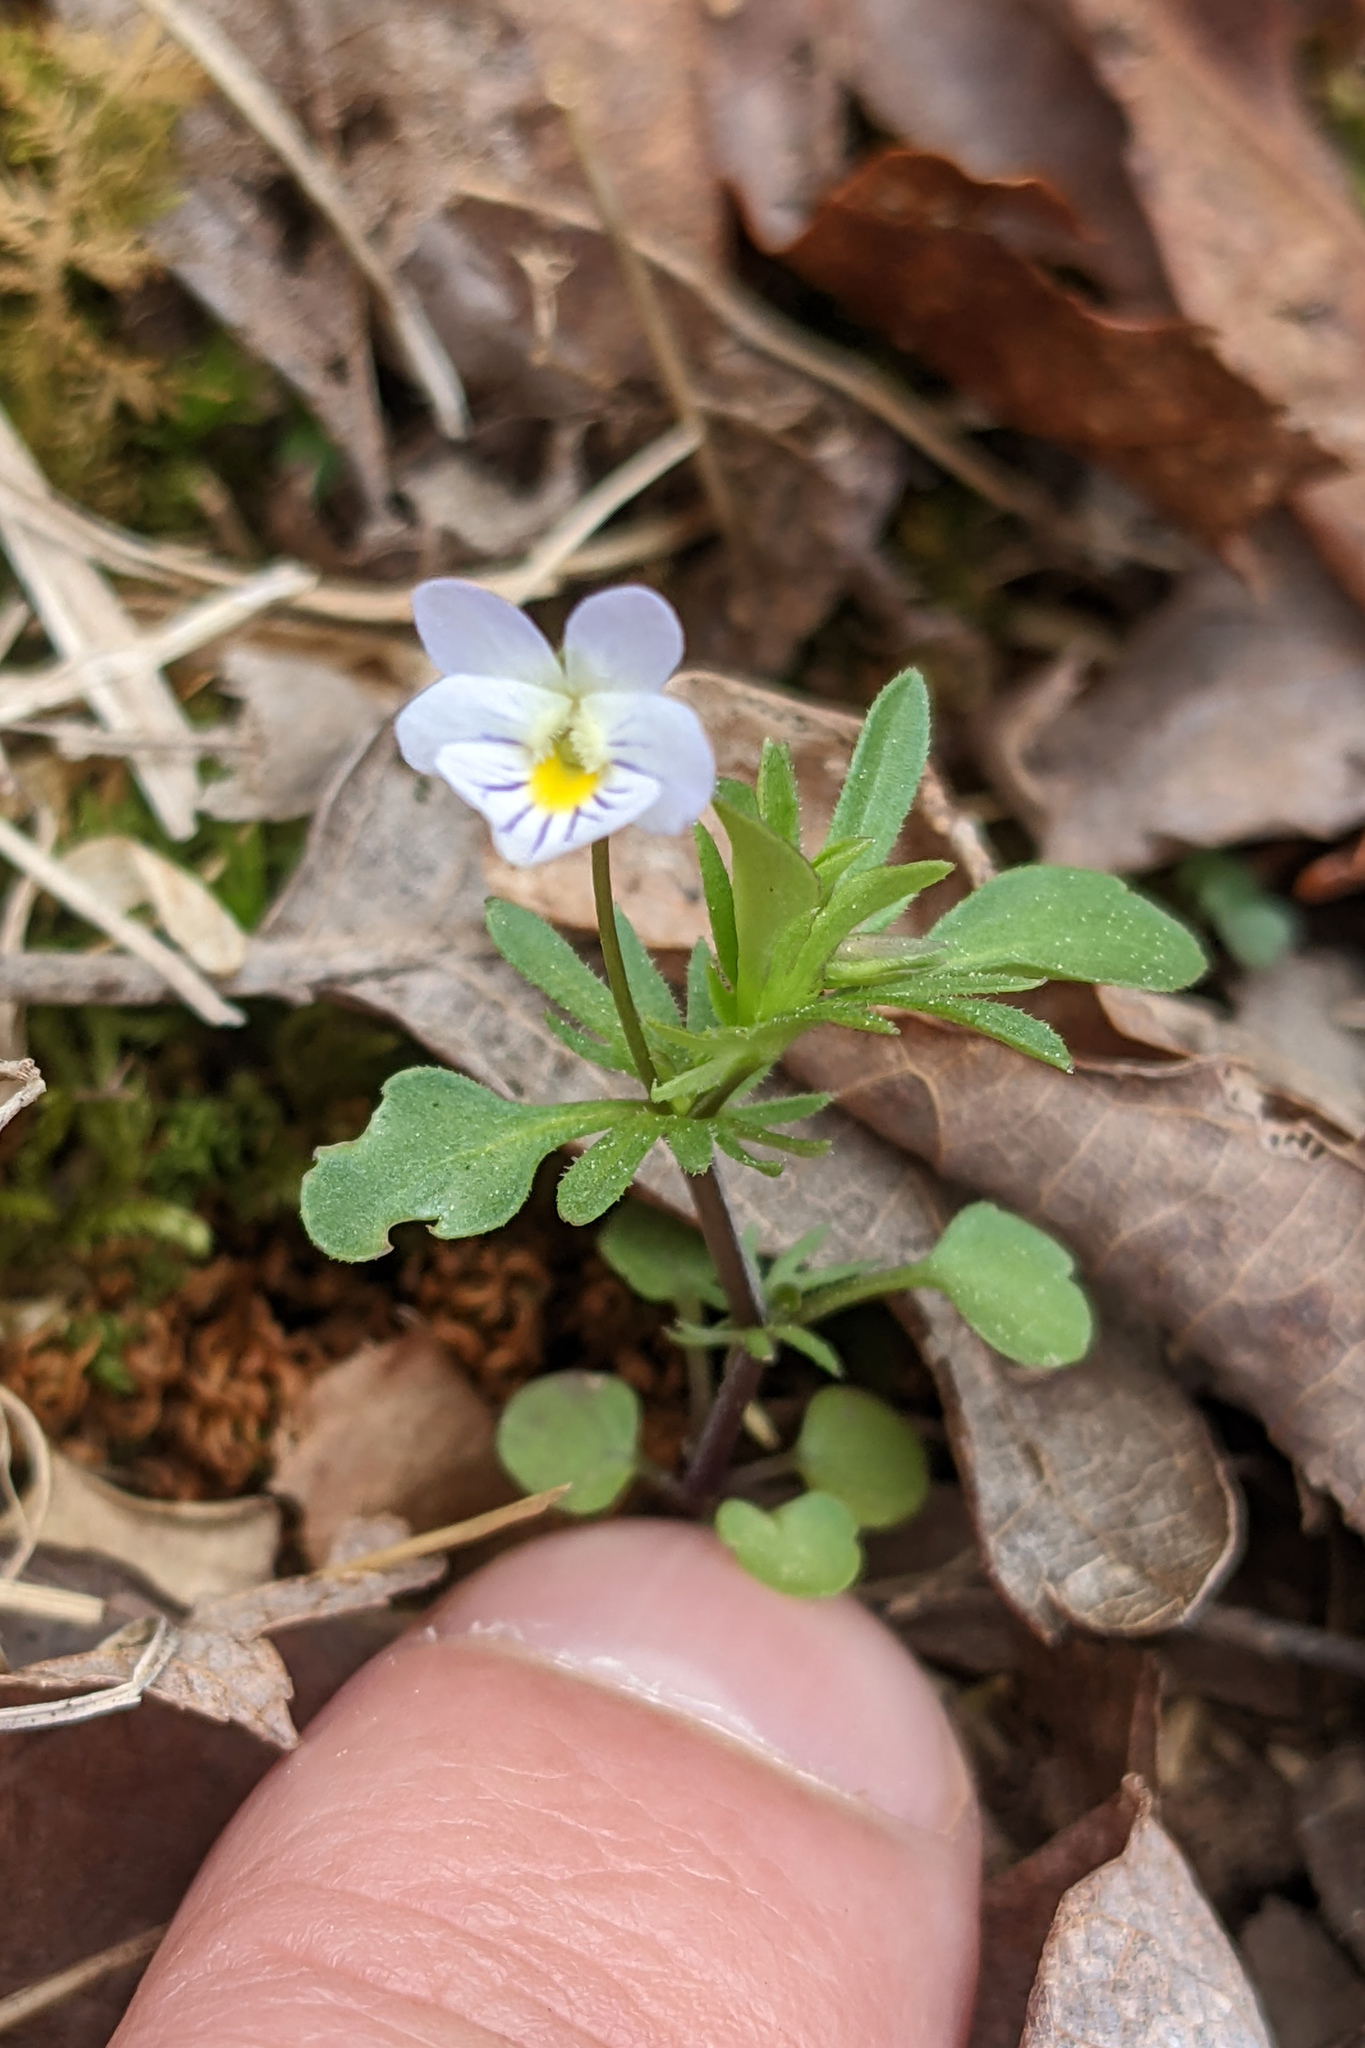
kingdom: Plantae
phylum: Tracheophyta
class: Magnoliopsida
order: Malpighiales
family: Violaceae
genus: Viola
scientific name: Viola rafinesquei
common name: American field pansy
